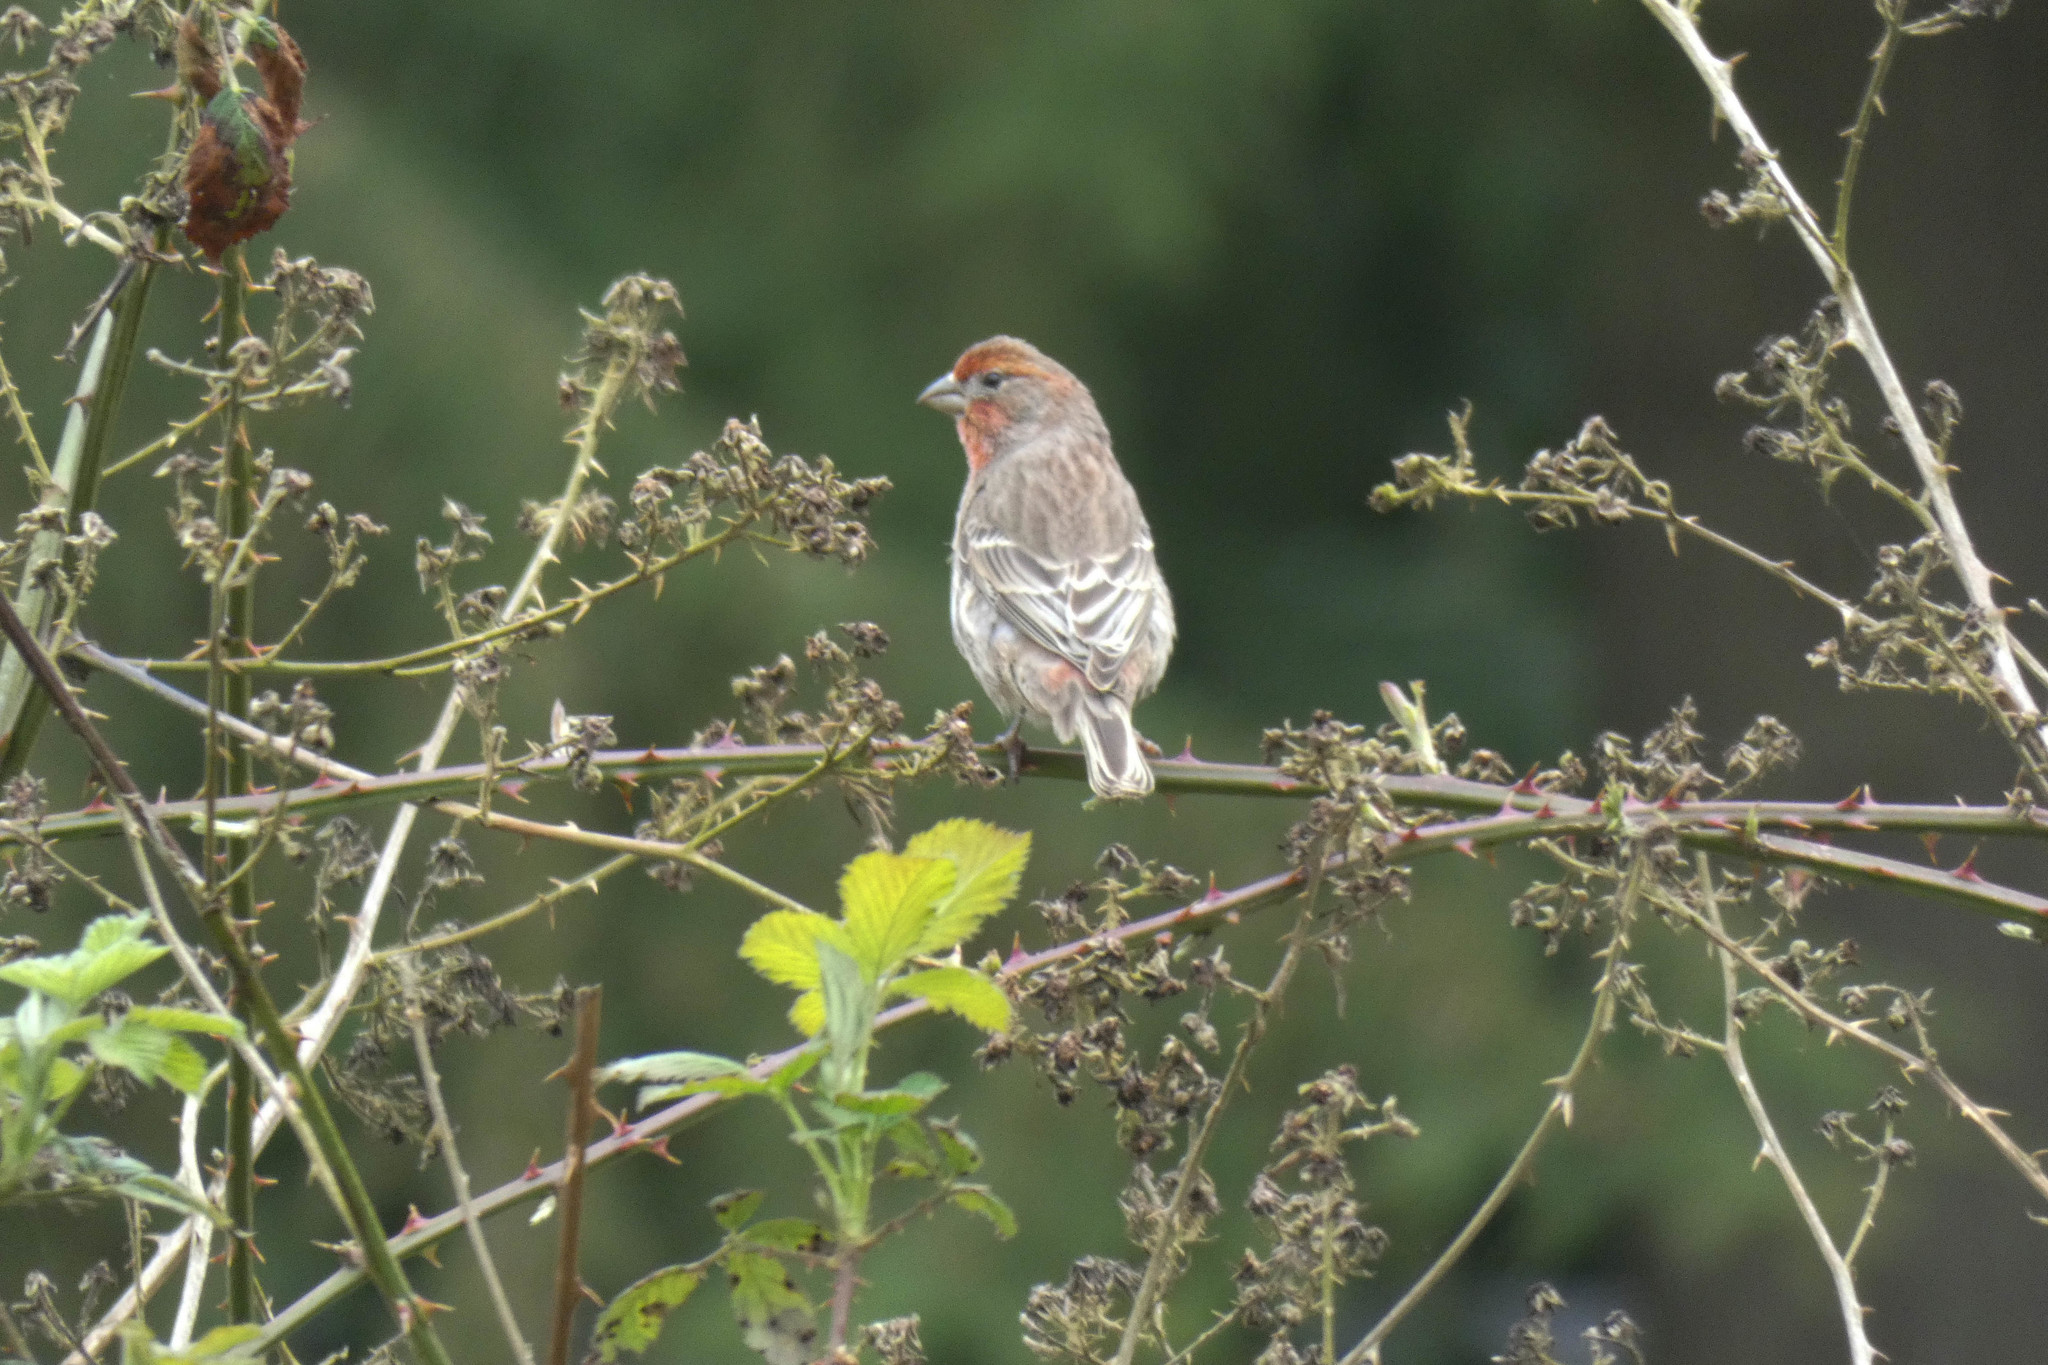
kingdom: Animalia
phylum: Chordata
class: Aves
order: Passeriformes
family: Fringillidae
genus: Haemorhous
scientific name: Haemorhous mexicanus
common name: House finch
